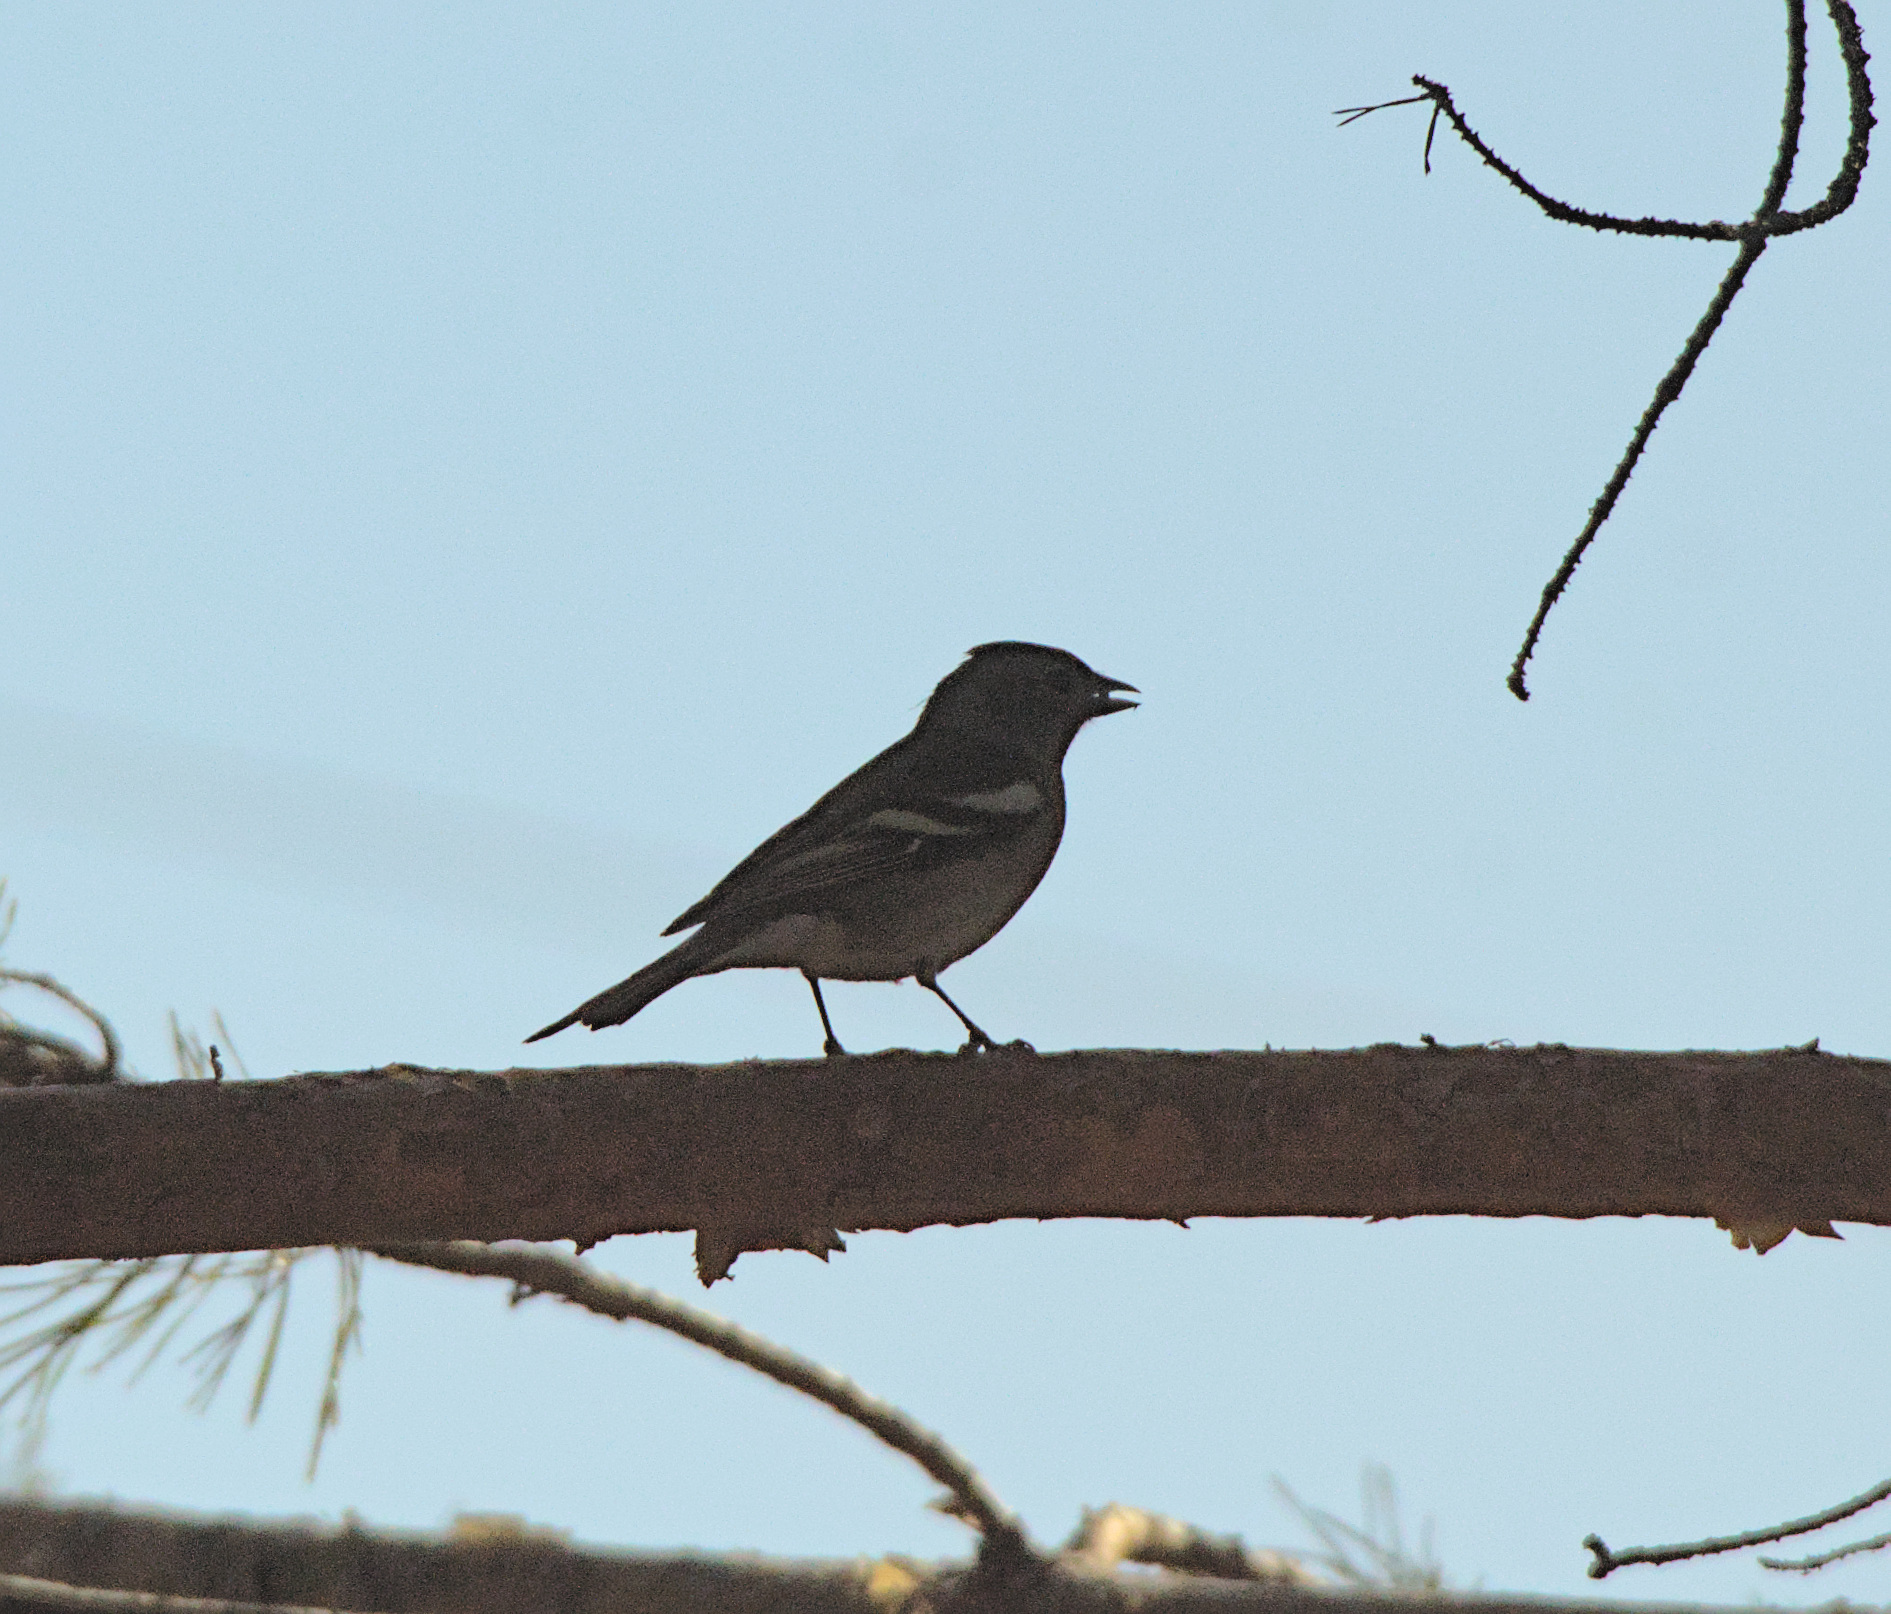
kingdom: Animalia
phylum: Chordata
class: Aves
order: Passeriformes
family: Fringillidae
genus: Fringilla
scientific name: Fringilla coelebs
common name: Common chaffinch
